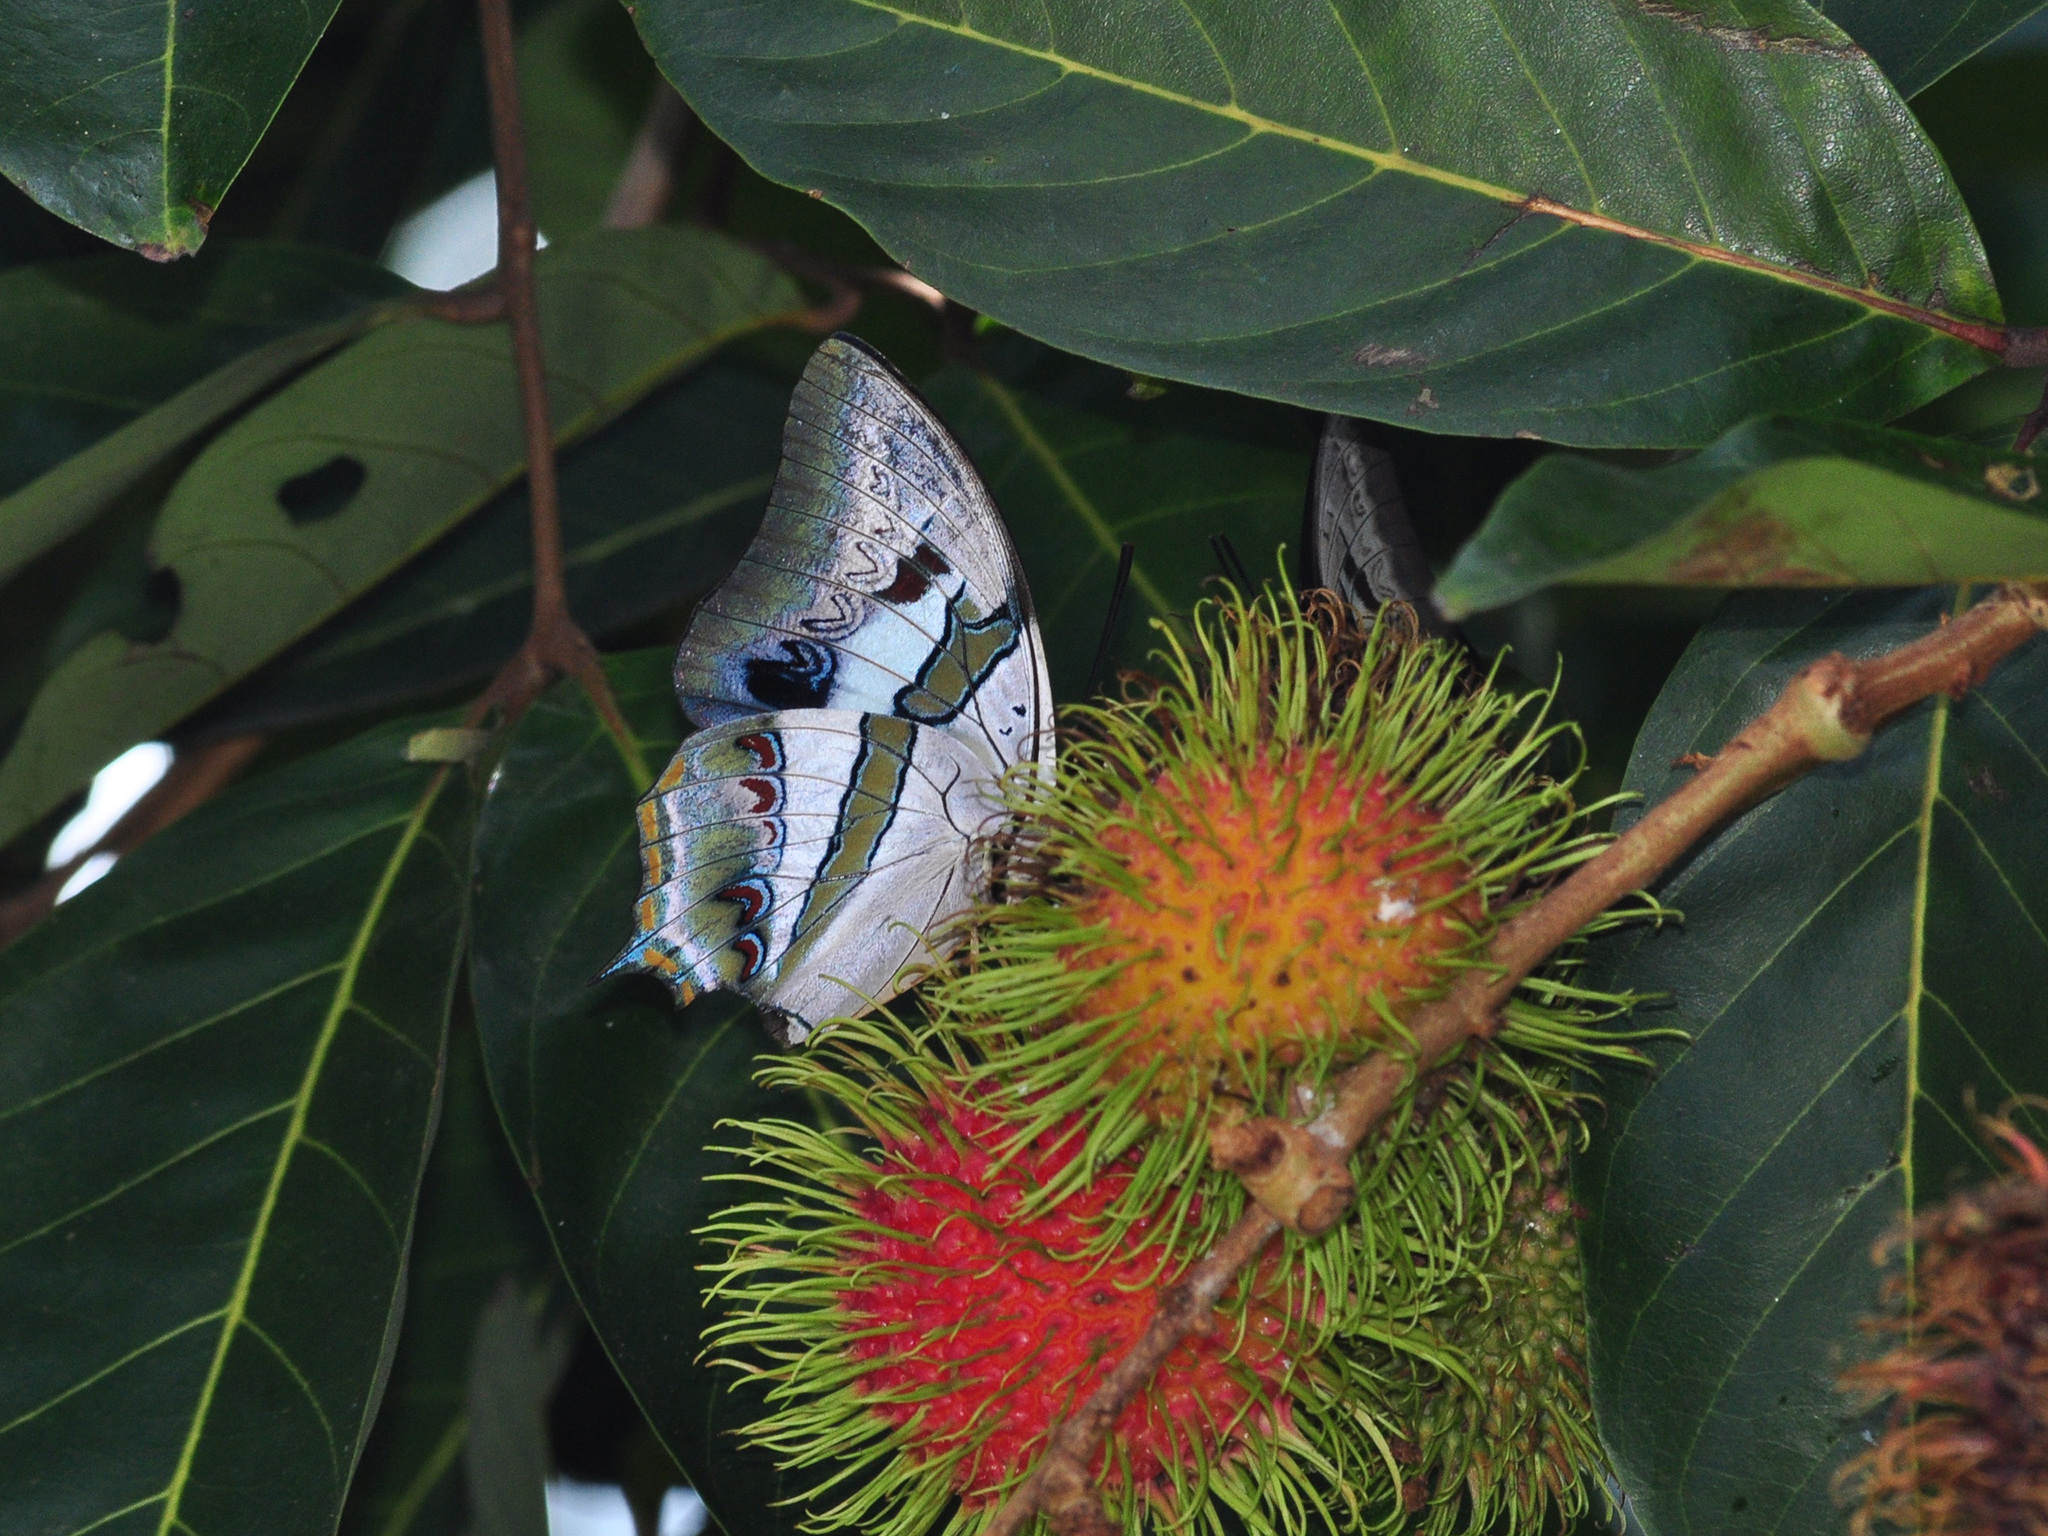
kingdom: Animalia
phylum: Arthropoda
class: Insecta
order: Lepidoptera
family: Nymphalidae
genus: Polyura
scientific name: Polyura schreiberi
